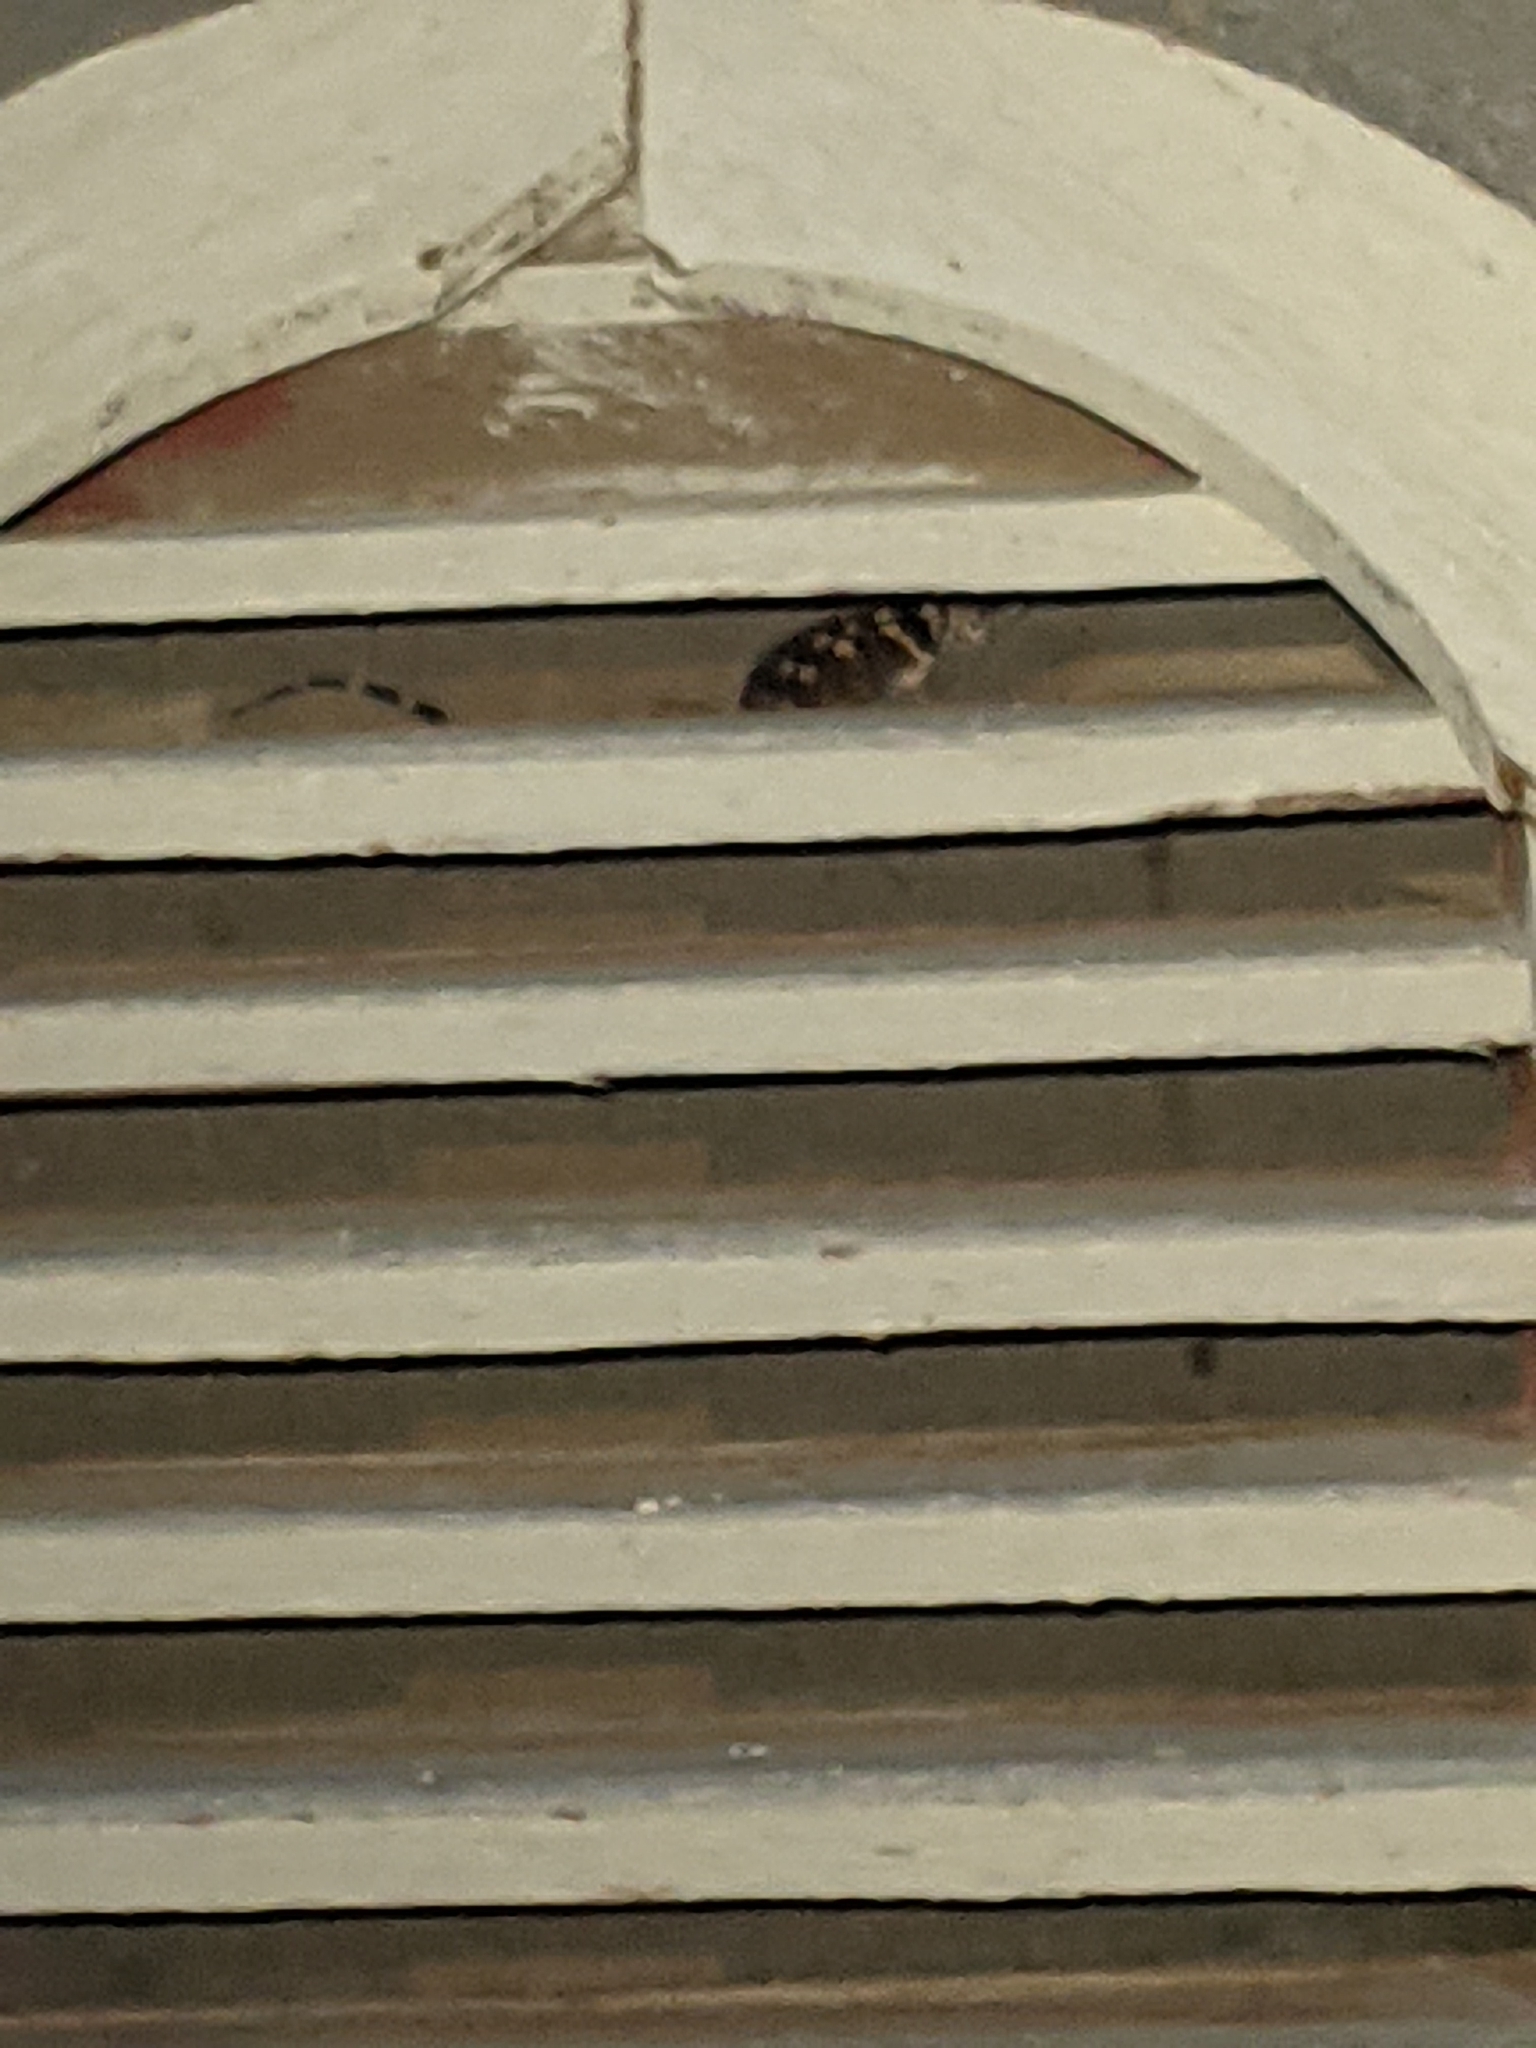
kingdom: Animalia
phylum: Chordata
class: Squamata
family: Phrynosomatidae
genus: Sceloporus
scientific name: Sceloporus poinsettii
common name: Crevice spiny lizard
